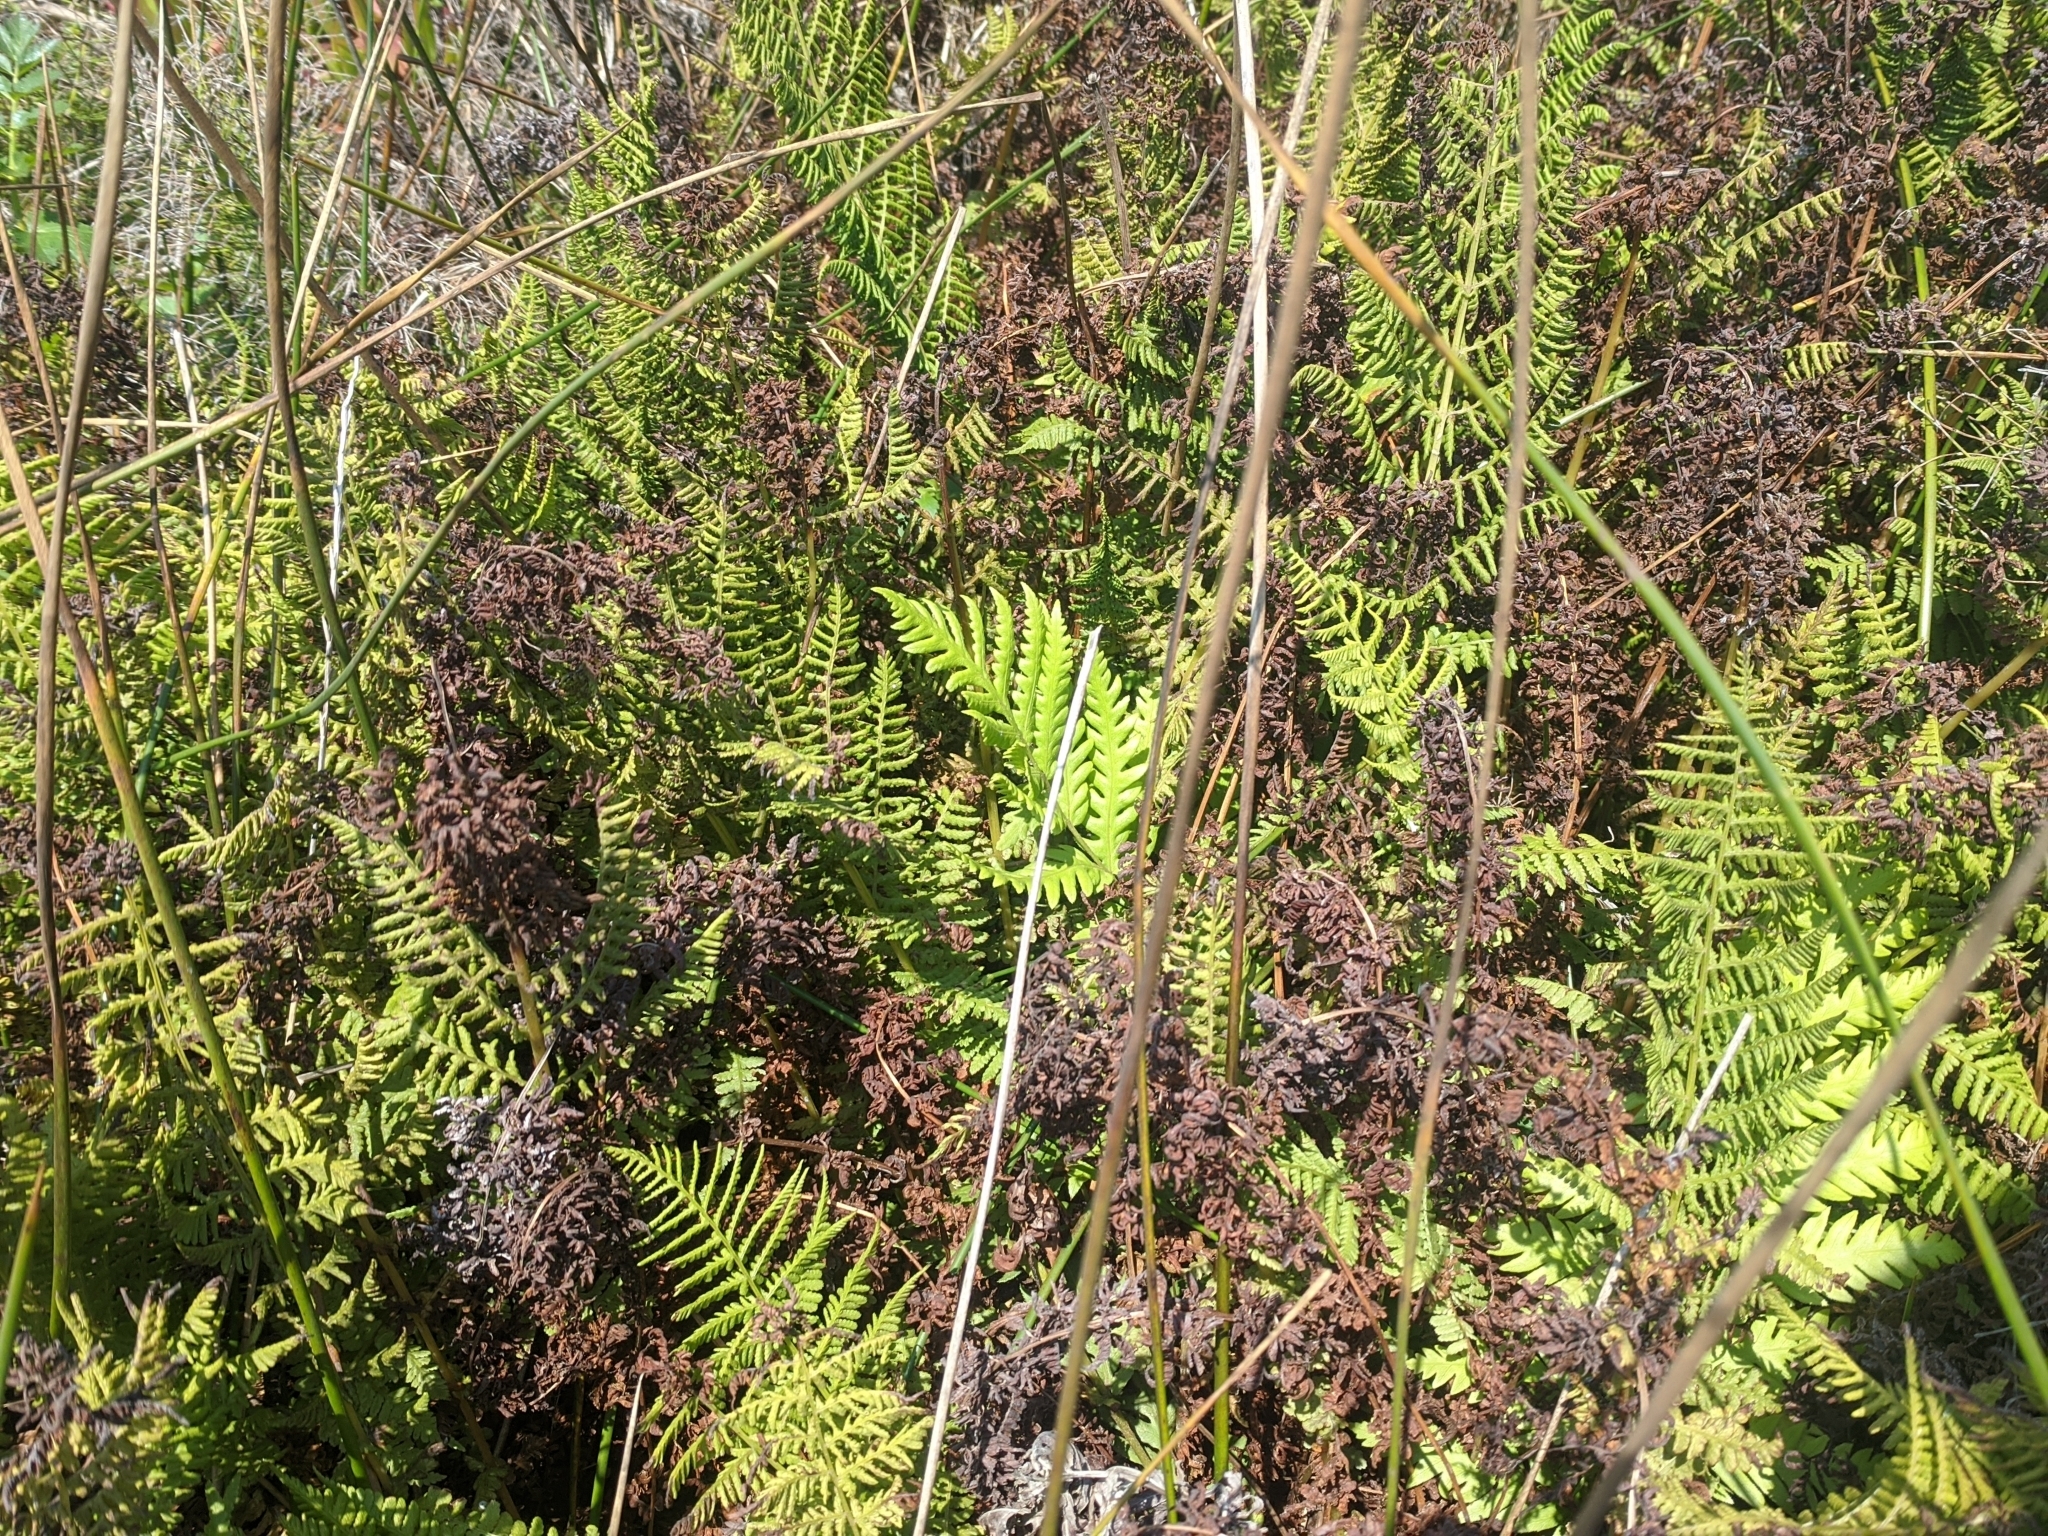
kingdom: Plantae
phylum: Tracheophyta
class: Polypodiopsida
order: Polypodiales
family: Athyriaceae
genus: Athyrium
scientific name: Athyrium cyclosorum
